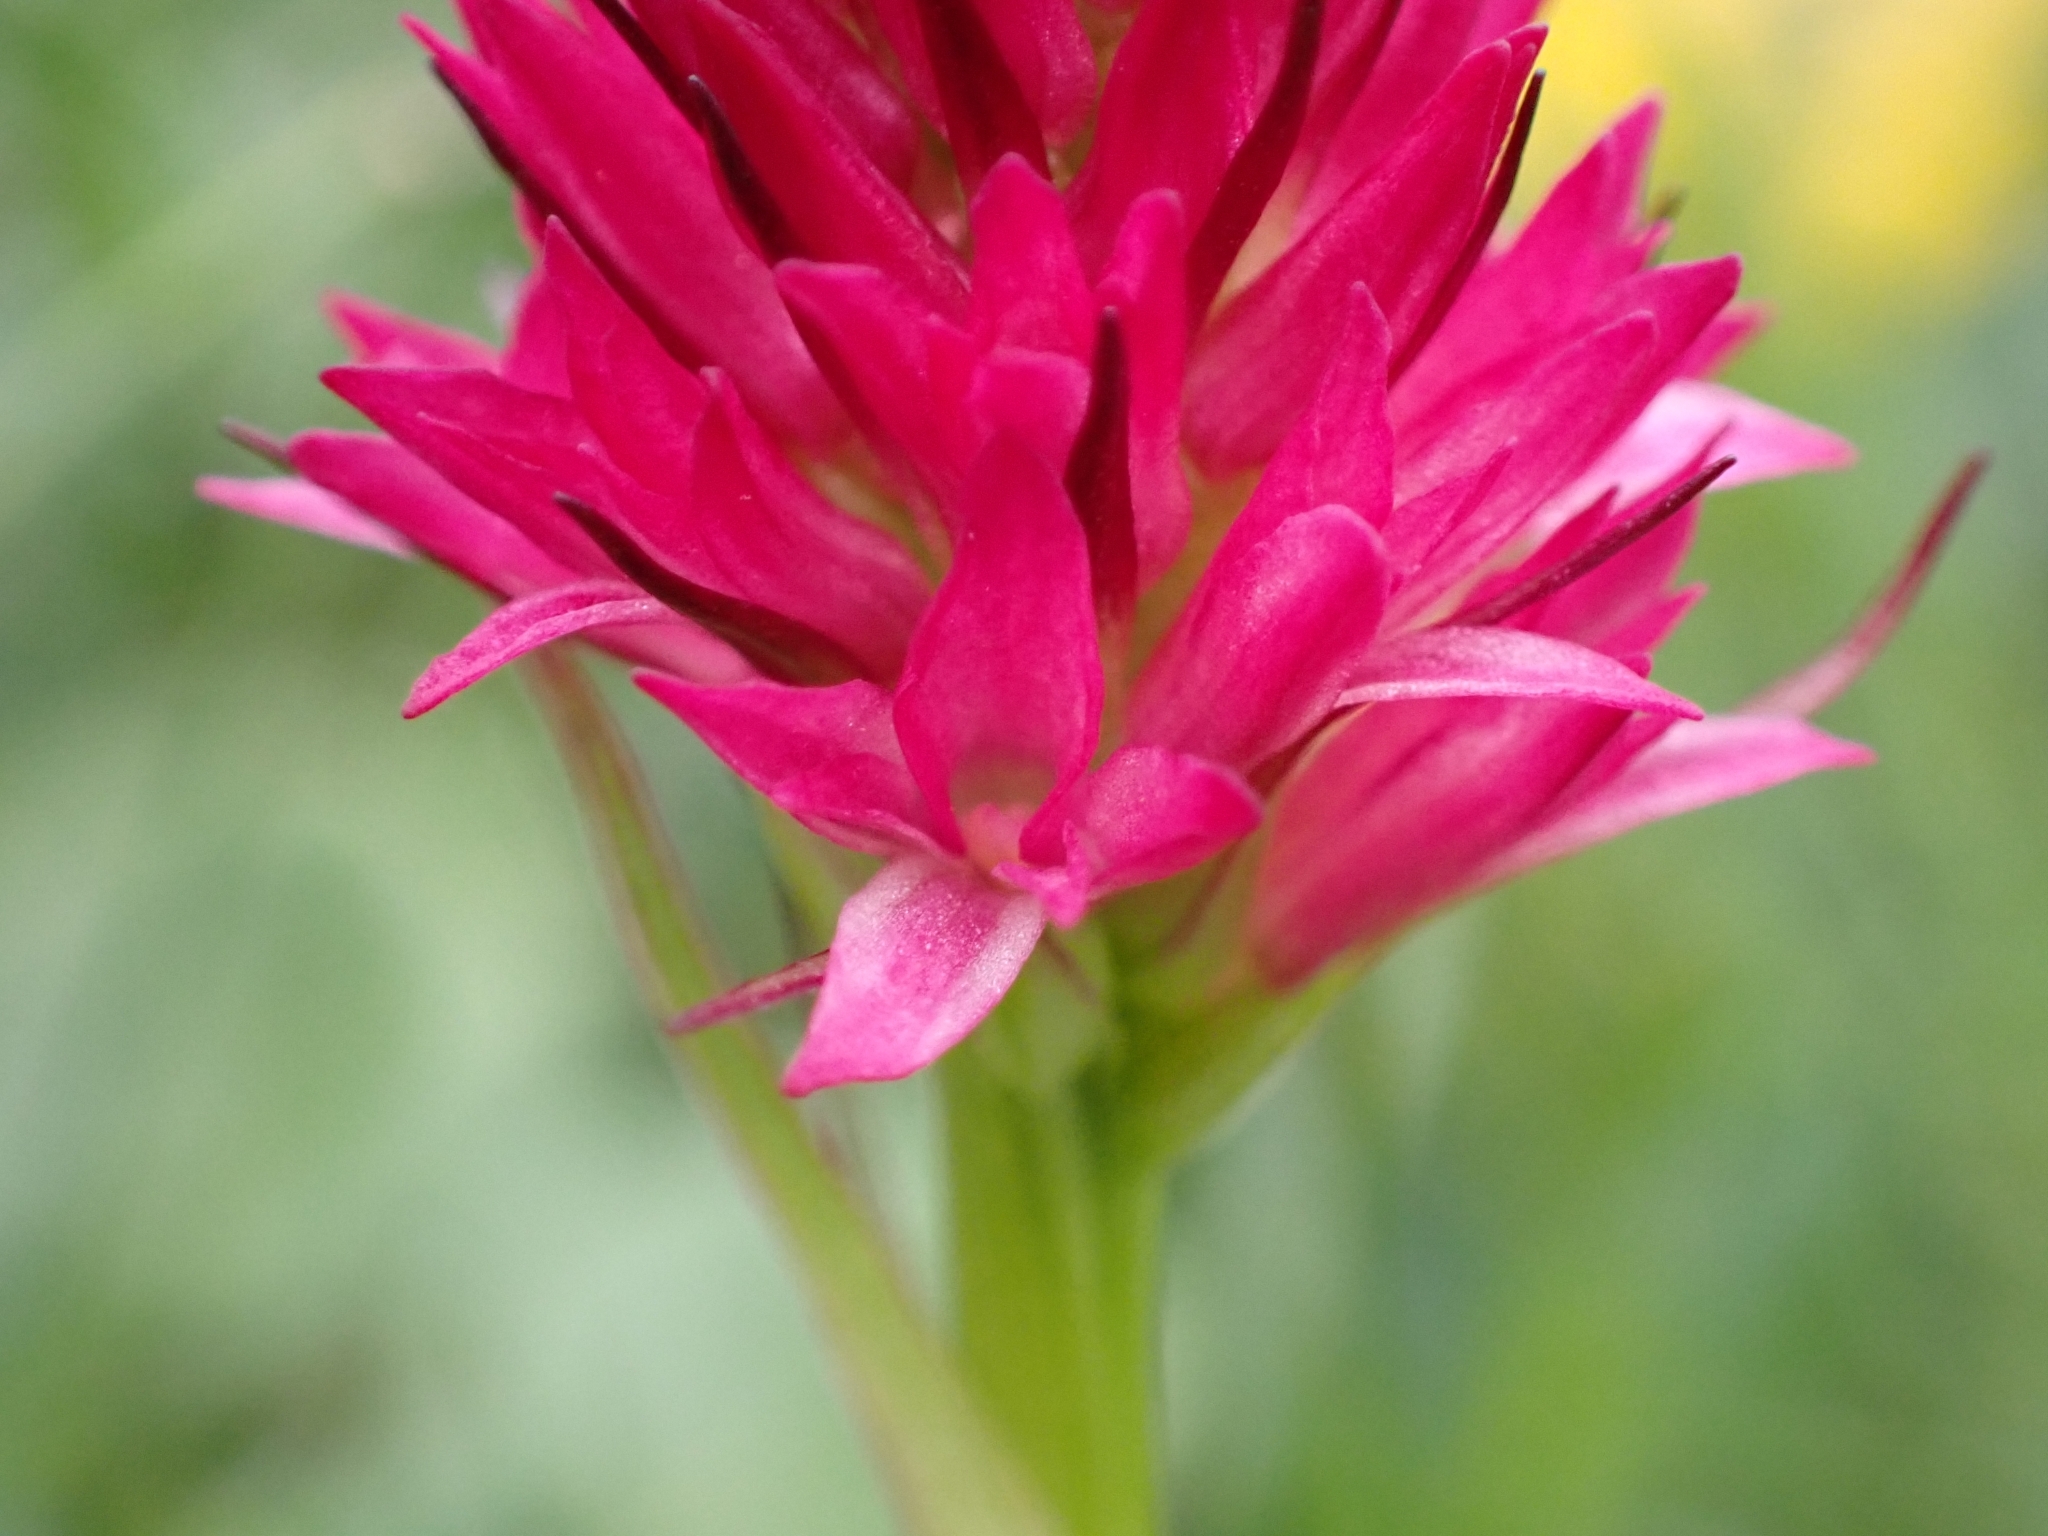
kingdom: Plantae
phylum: Tracheophyta
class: Liliopsida
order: Asparagales
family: Orchidaceae
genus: Gymnadenia
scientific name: Gymnadenia miniata
